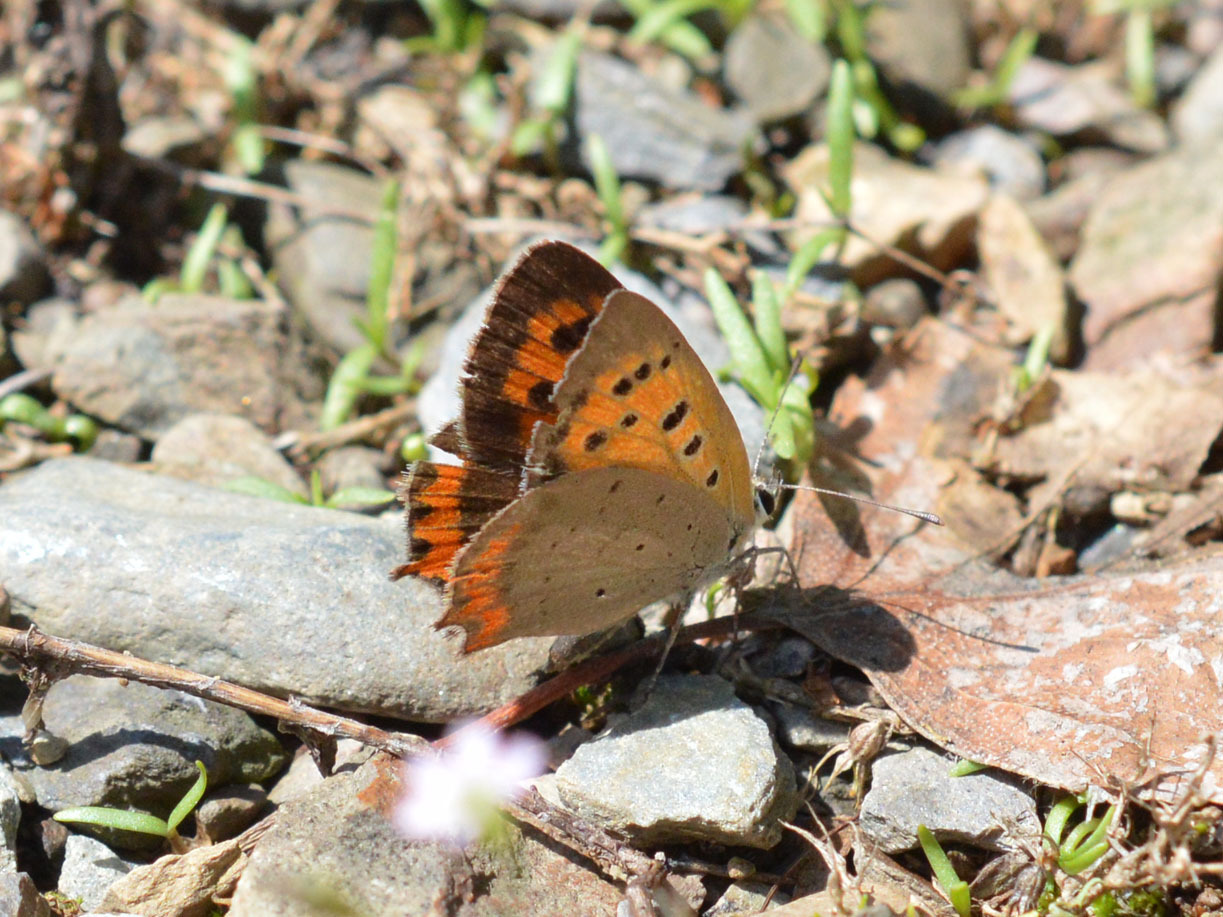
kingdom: Animalia
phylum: Arthropoda
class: Insecta
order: Lepidoptera
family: Lycaenidae
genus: Lycaena
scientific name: Lycaena phlaeas
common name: Small copper
